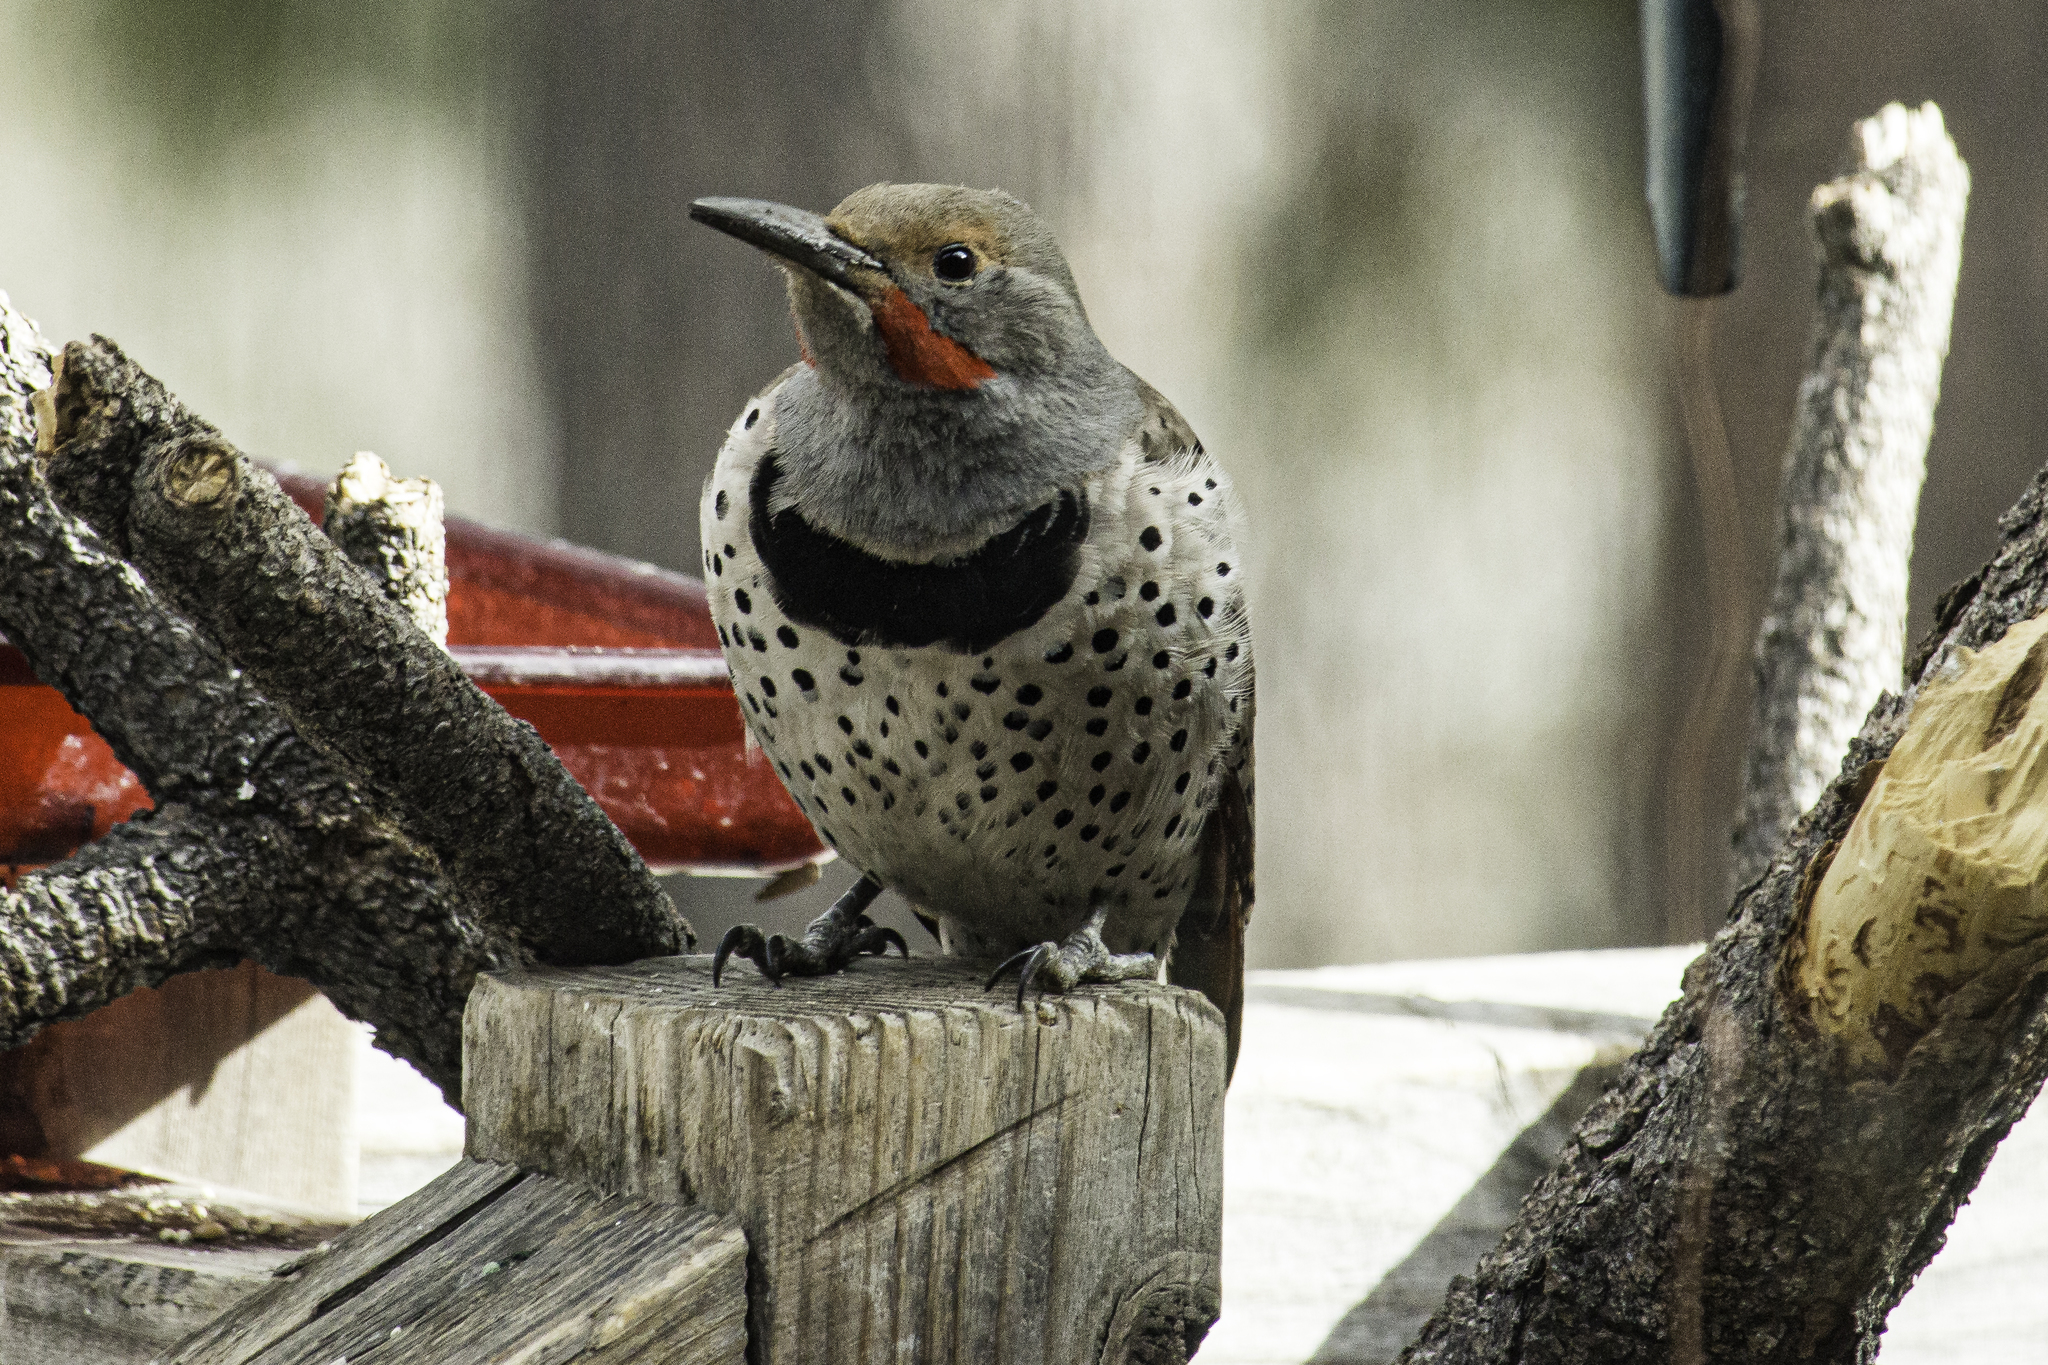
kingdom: Animalia
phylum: Chordata
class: Aves
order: Piciformes
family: Picidae
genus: Colaptes
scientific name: Colaptes auratus
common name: Northern flicker
